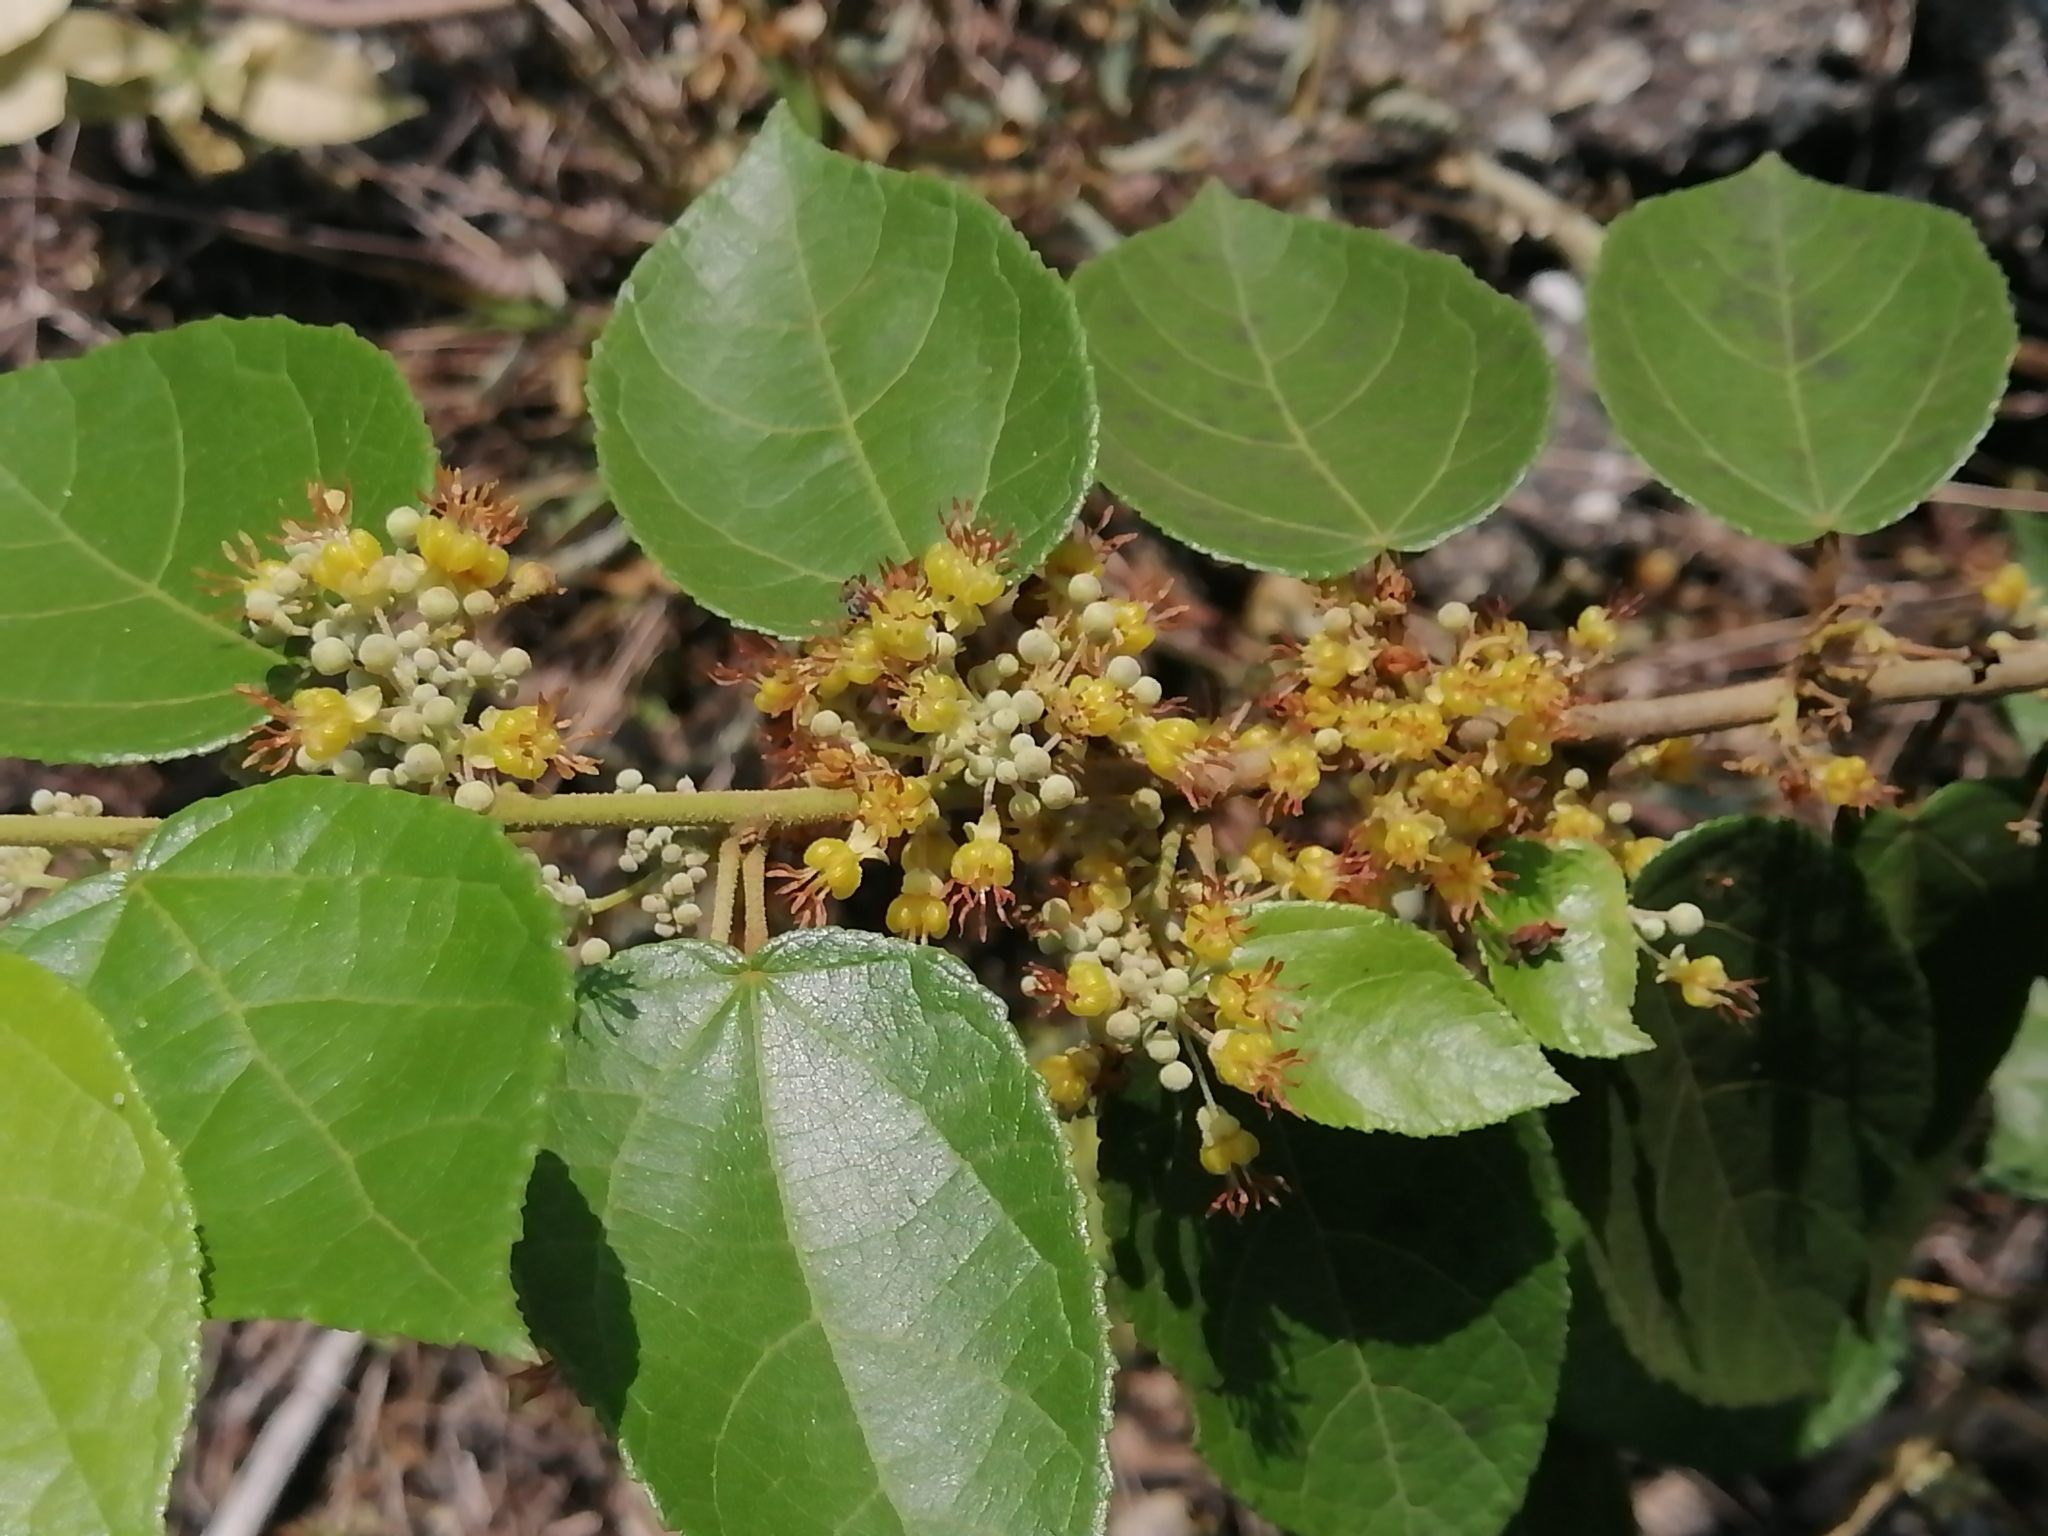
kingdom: Plantae
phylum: Tracheophyta
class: Magnoliopsida
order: Malvales
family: Malvaceae
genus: Guazuma
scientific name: Guazuma ulmifolia
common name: Bastard-cedar
